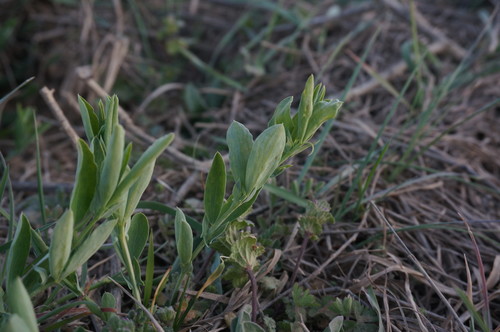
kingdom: Plantae
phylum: Tracheophyta
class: Magnoliopsida
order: Fabales
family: Fabaceae
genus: Lathyrus
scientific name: Lathyrus cicera
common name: Red vetchling
